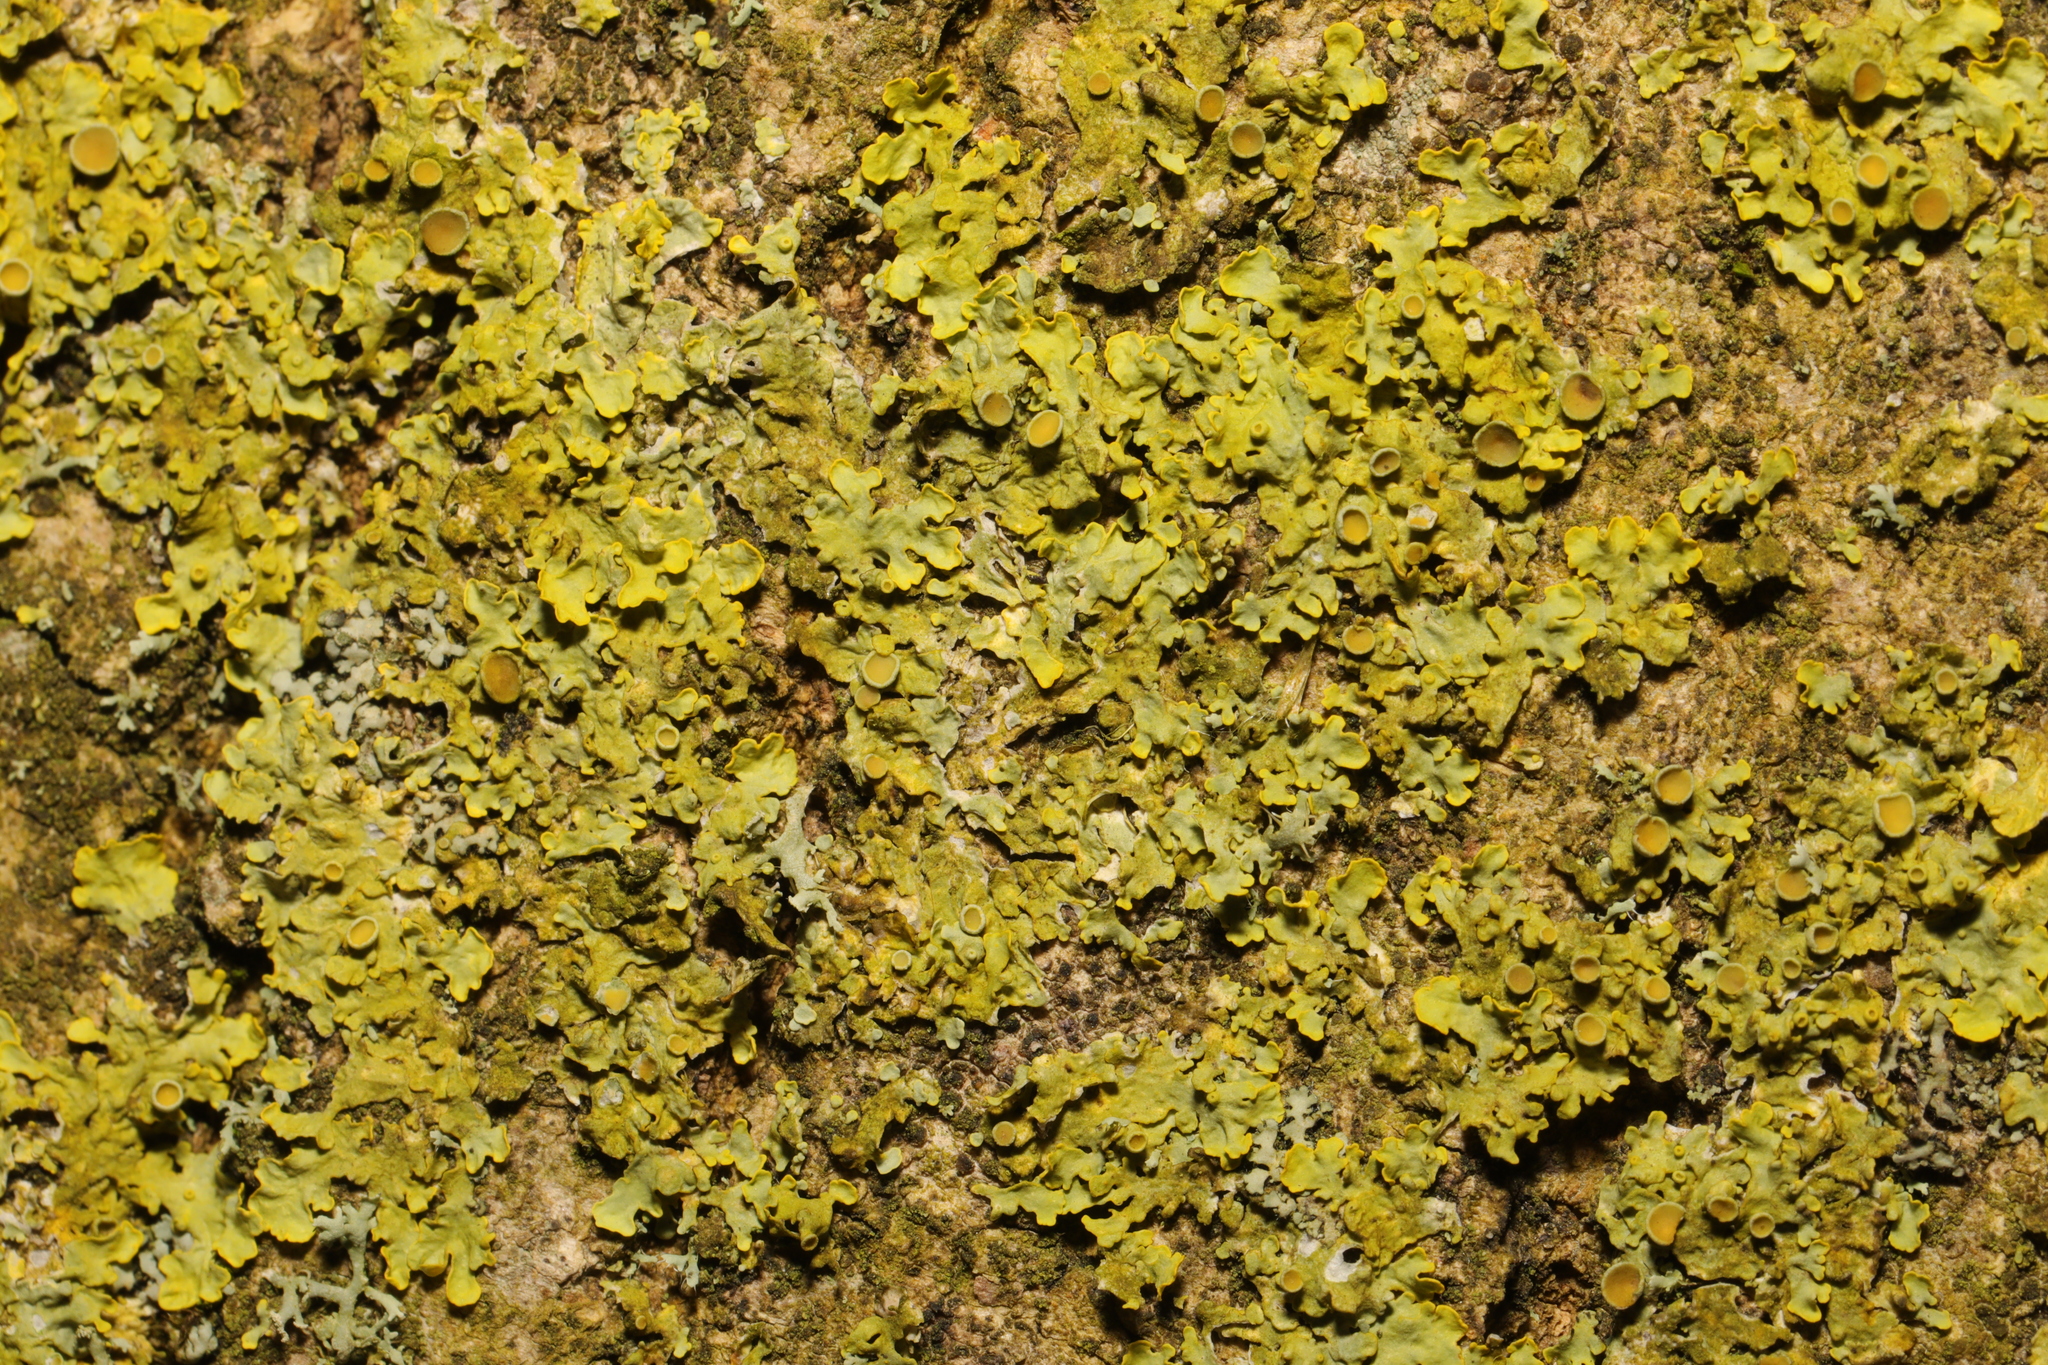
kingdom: Fungi
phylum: Ascomycota
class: Lecanoromycetes
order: Teloschistales
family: Teloschistaceae
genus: Xanthoria
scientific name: Xanthoria parietina
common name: Common orange lichen
